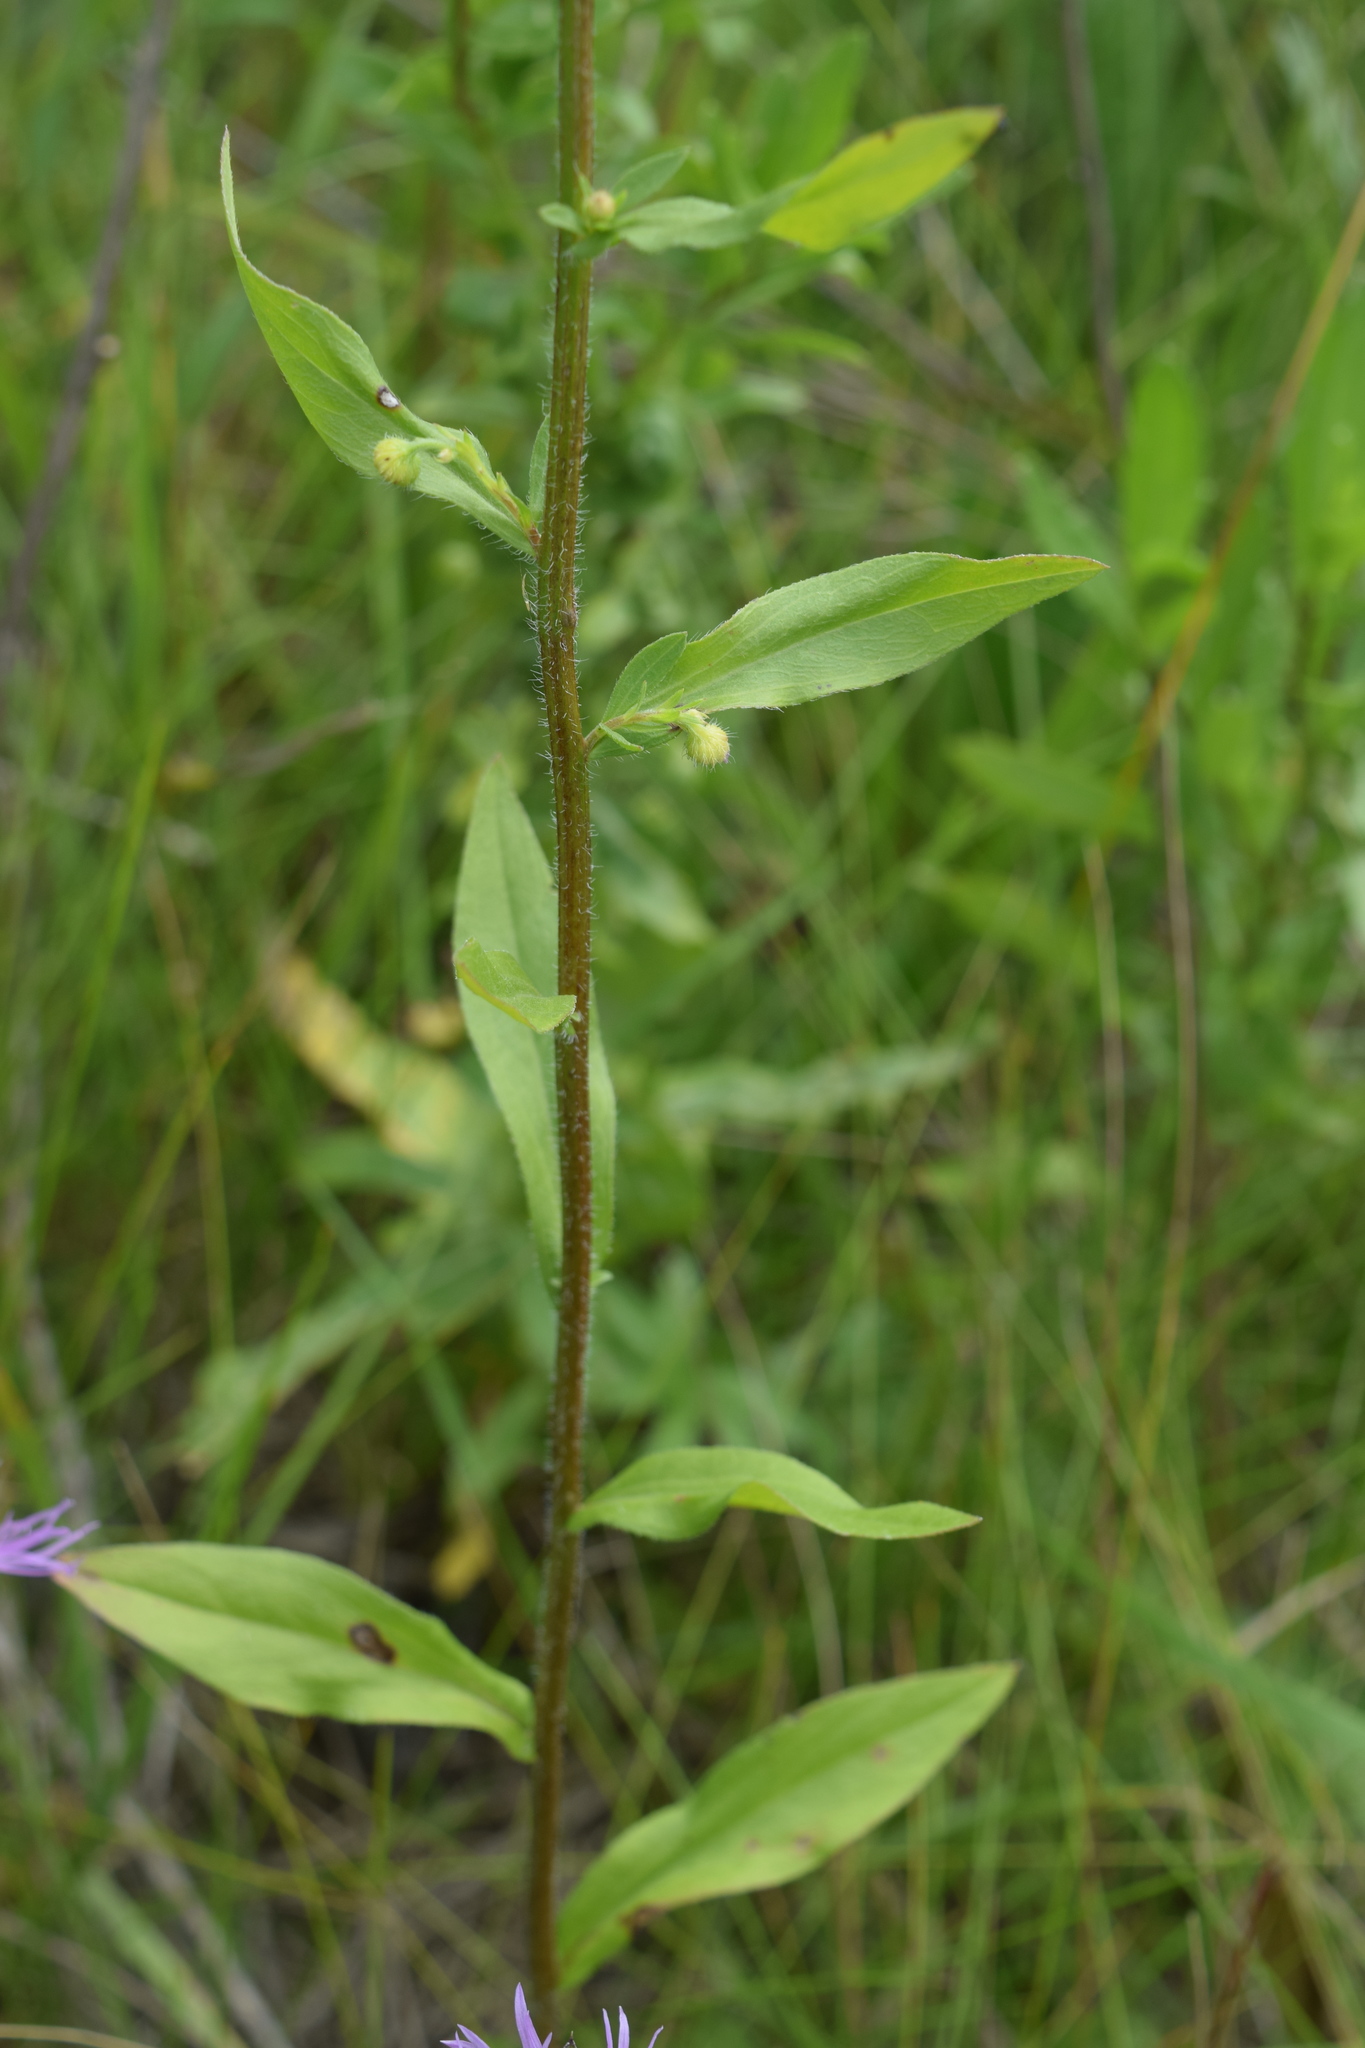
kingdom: Plantae
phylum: Tracheophyta
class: Magnoliopsida
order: Asterales
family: Asteraceae
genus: Erigeron
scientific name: Erigeron annuus
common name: Tall fleabane
